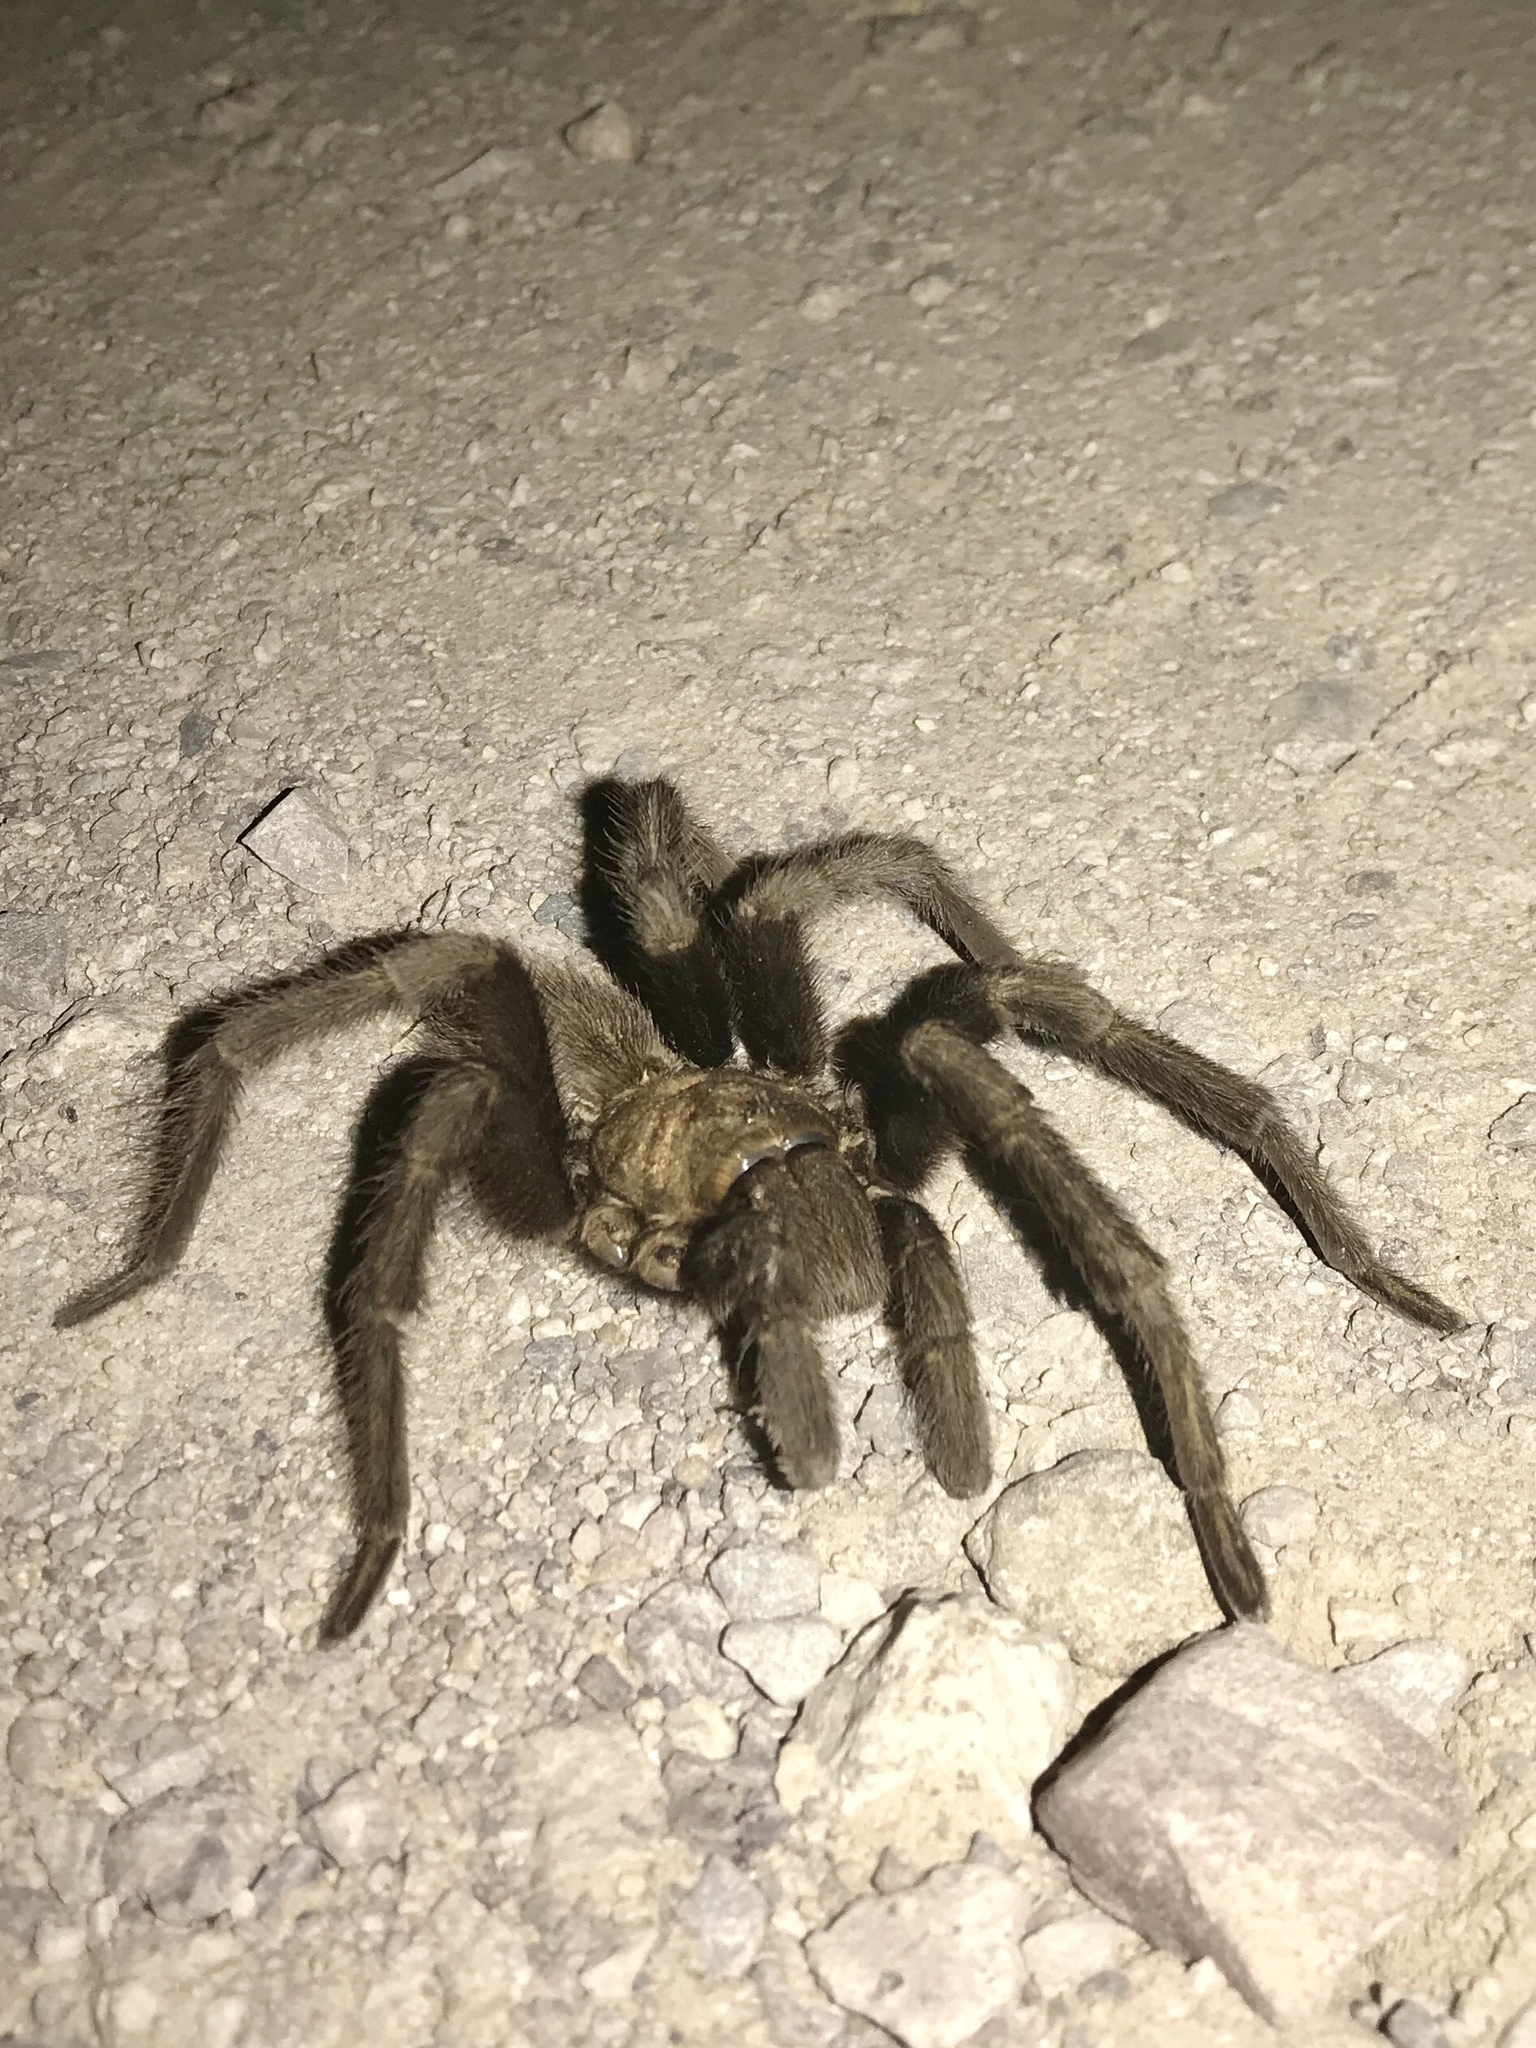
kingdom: Animalia
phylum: Arthropoda
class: Arachnida
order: Araneae
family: Theraphosidae
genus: Aphonopelma
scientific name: Aphonopelma chalcodes
